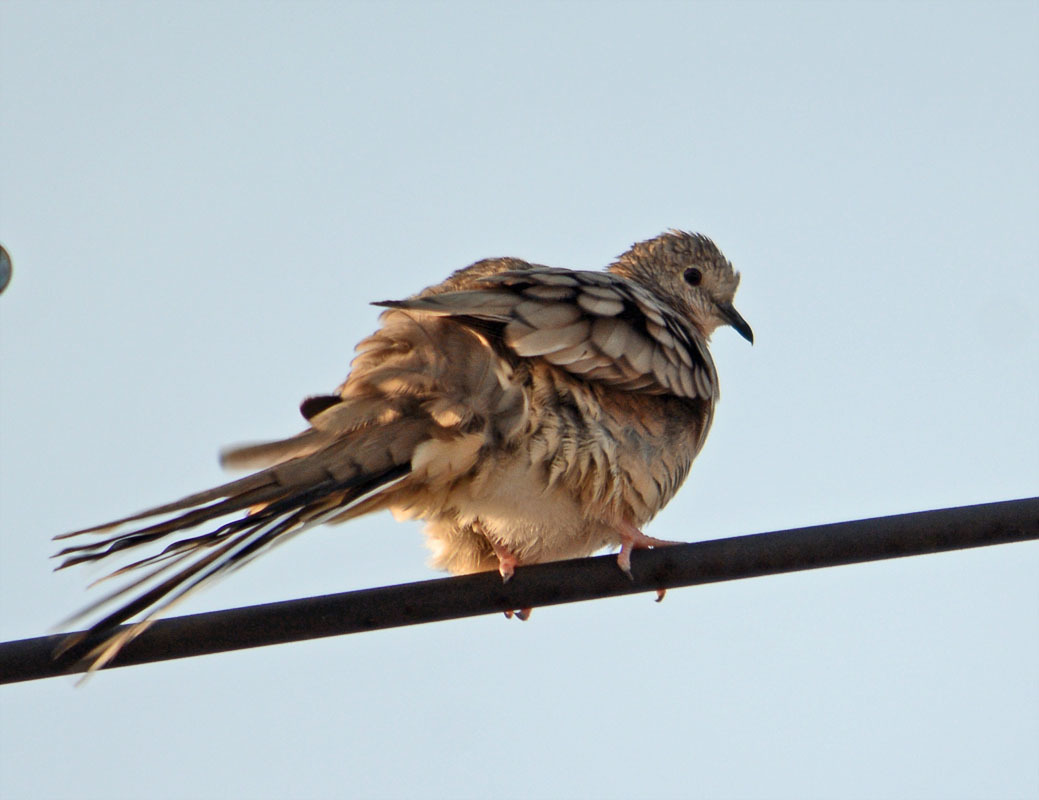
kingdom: Animalia
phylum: Chordata
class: Aves
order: Columbiformes
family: Columbidae
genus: Columbina
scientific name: Columbina inca
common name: Inca dove
